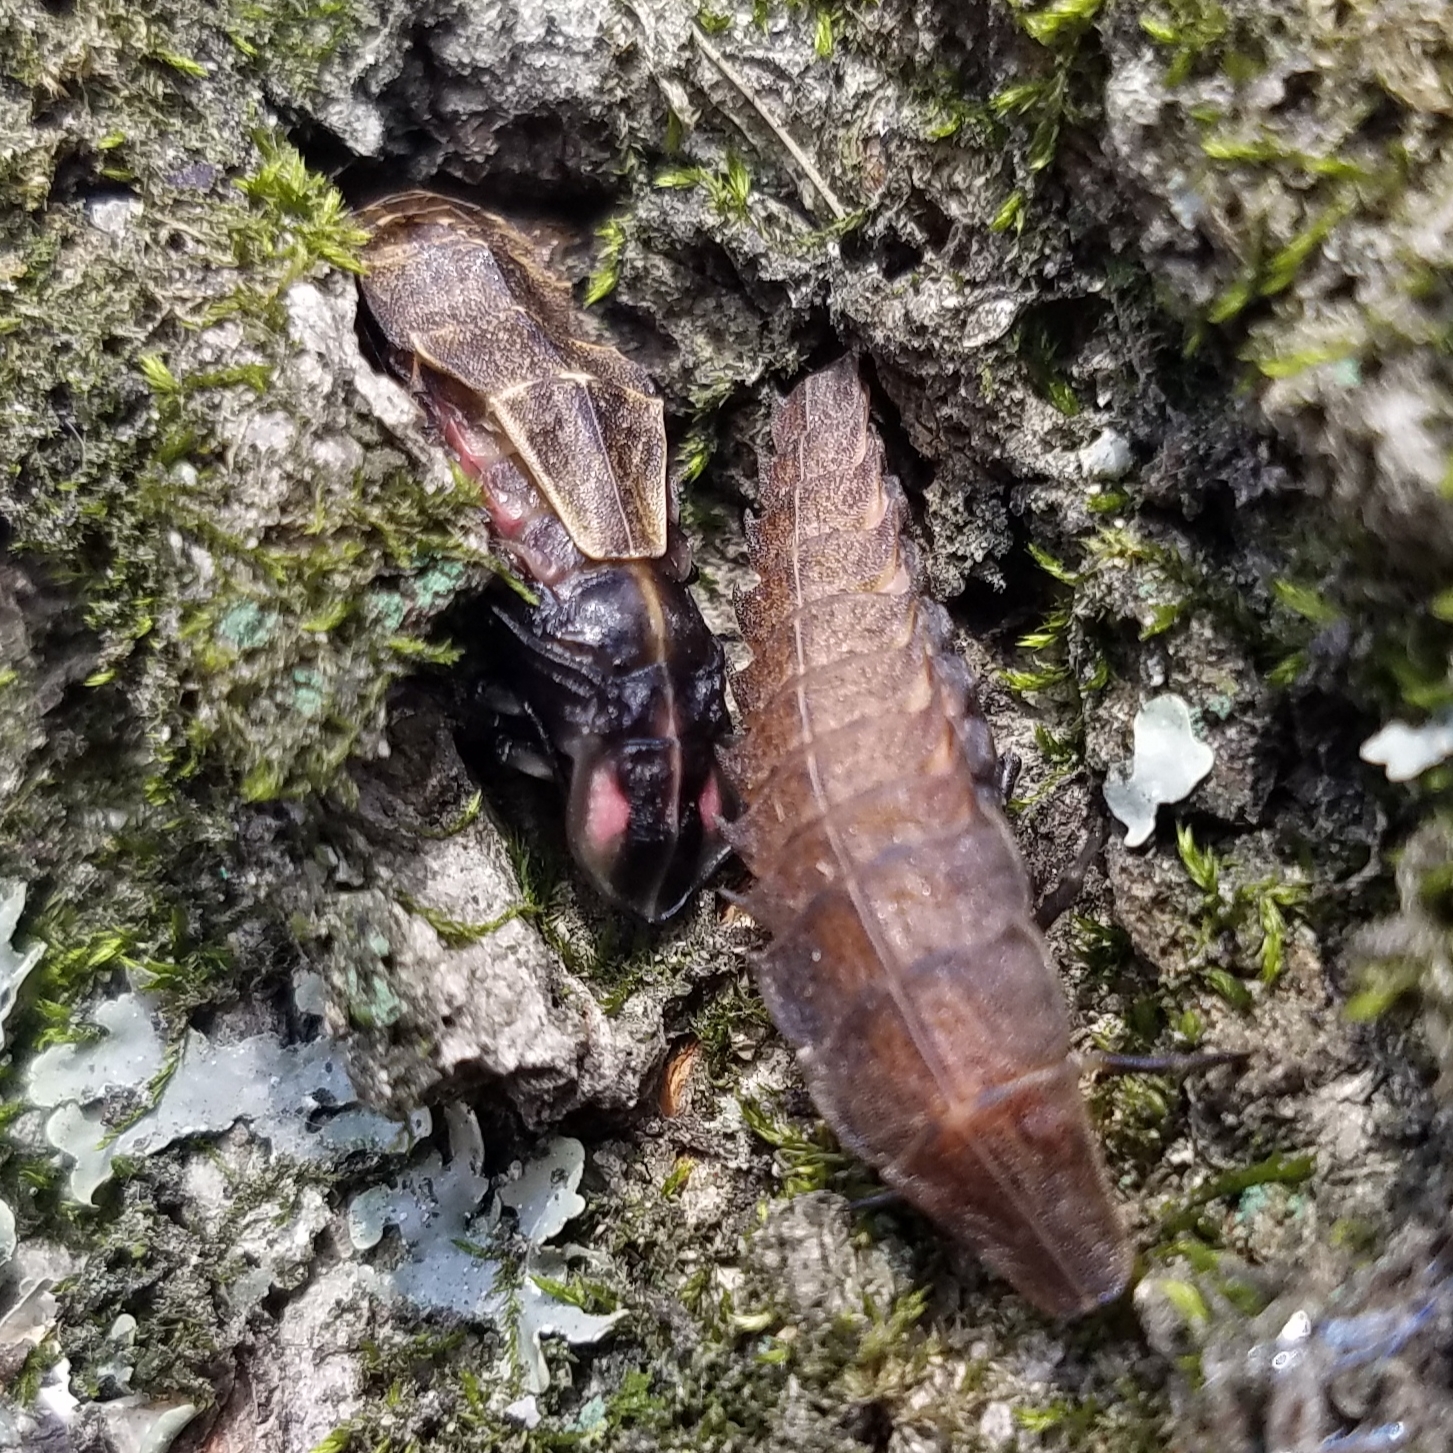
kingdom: Animalia
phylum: Arthropoda
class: Insecta
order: Coleoptera
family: Lampyridae
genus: Pyractomena
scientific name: Pyractomena borealis
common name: Northern firefly
